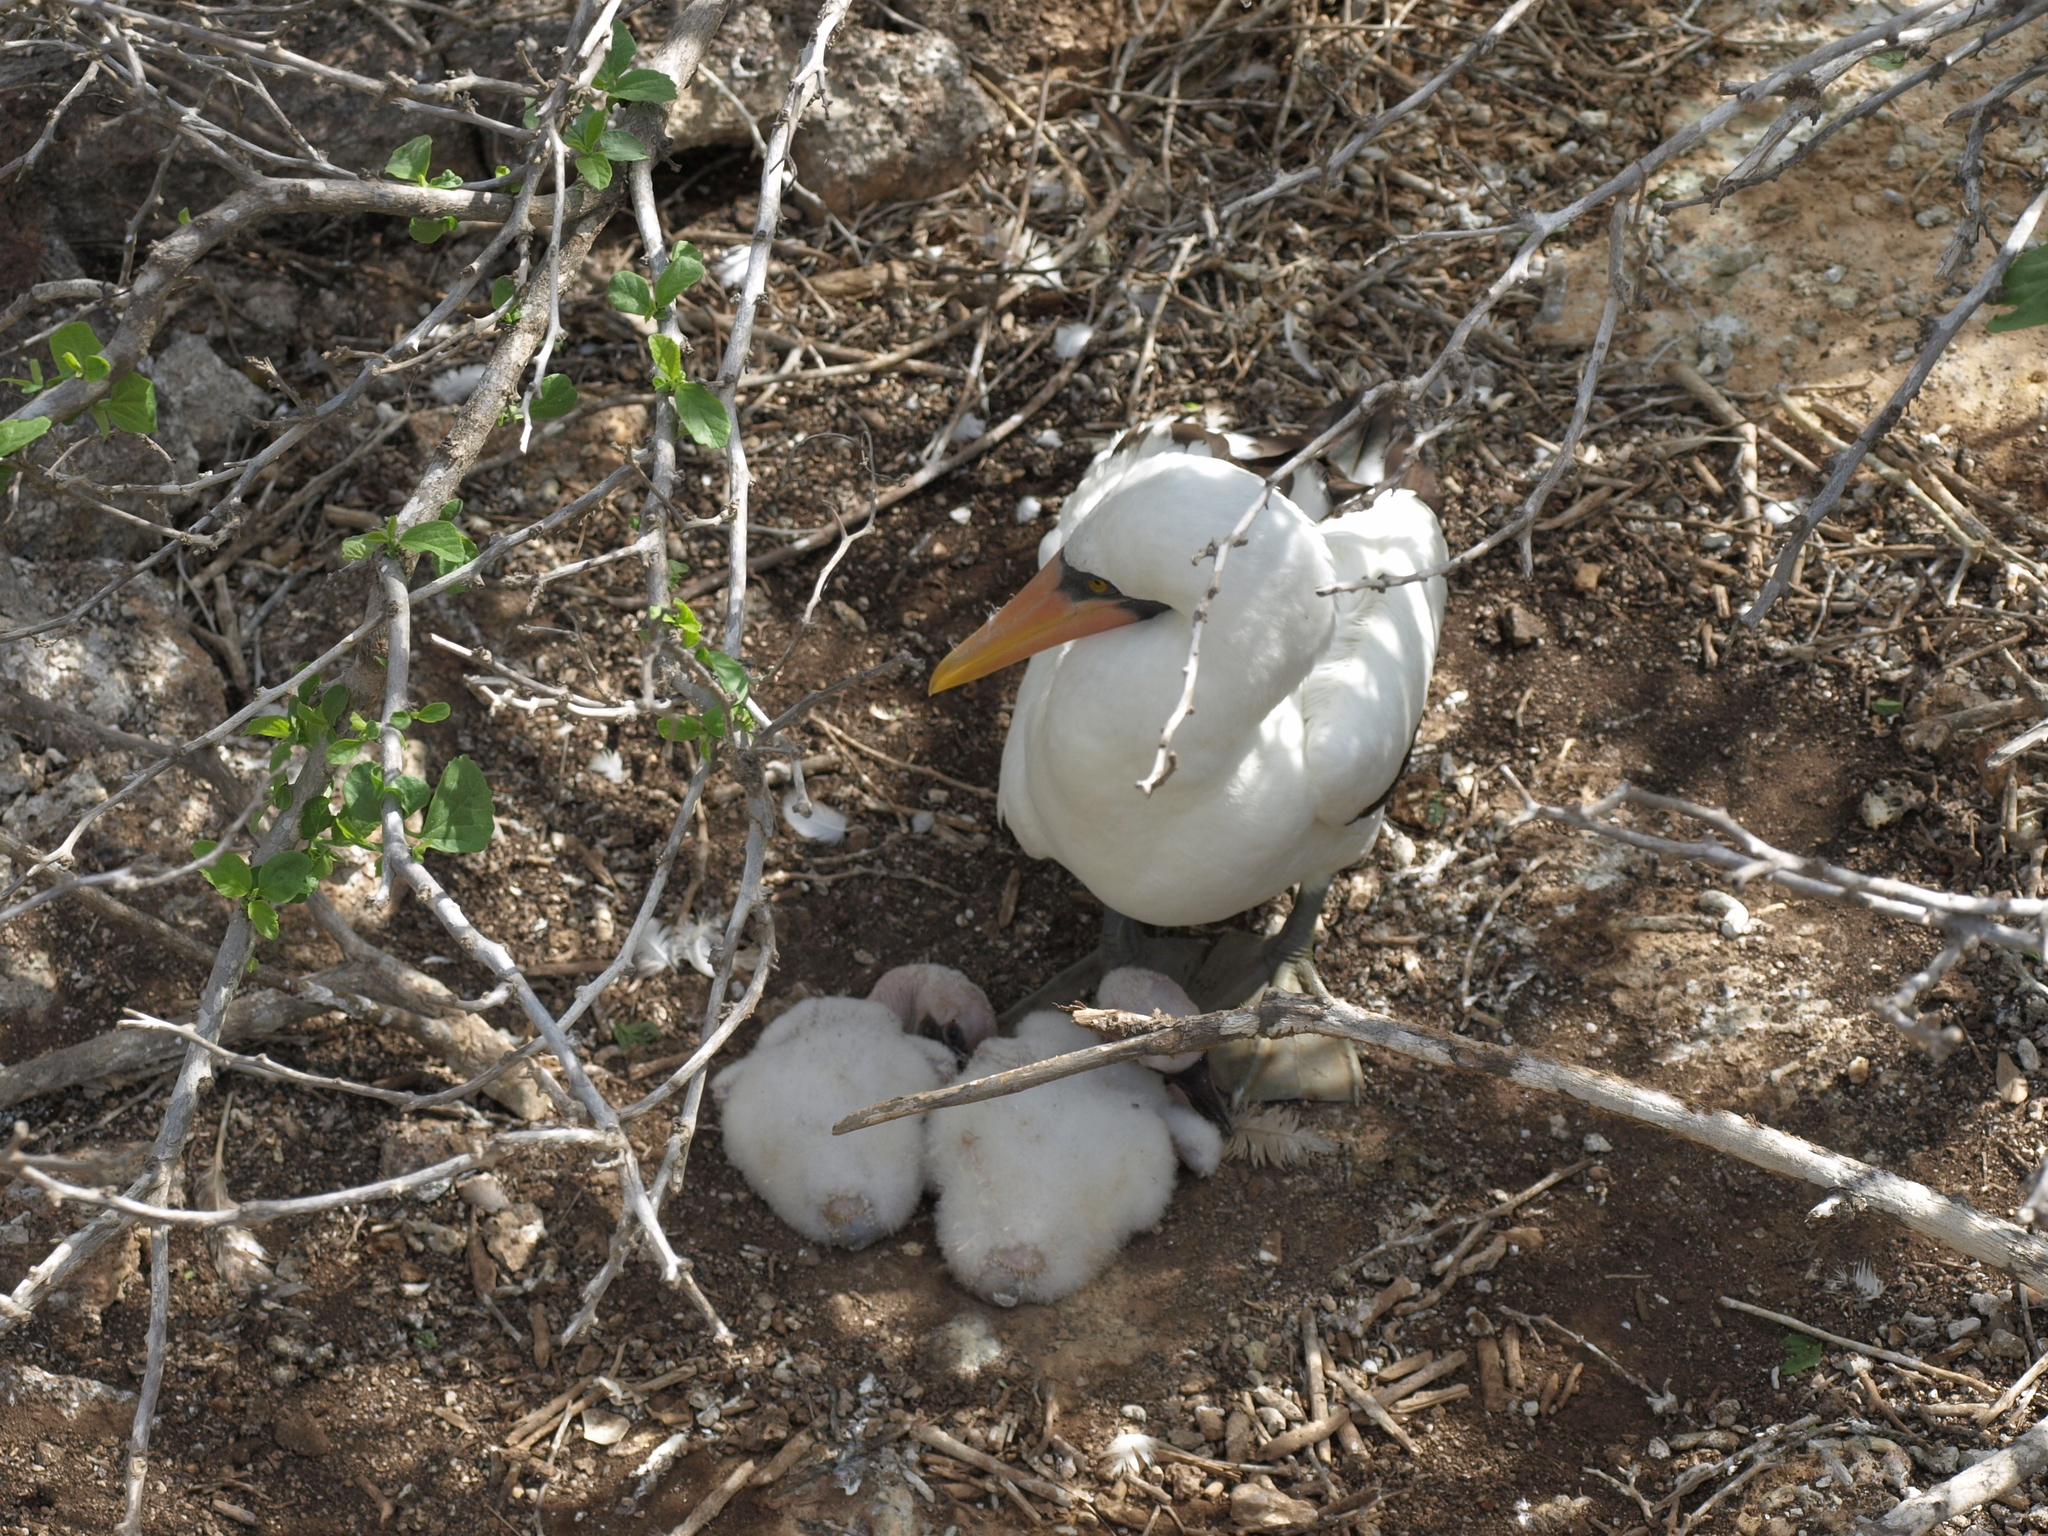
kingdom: Animalia
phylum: Chordata
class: Aves
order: Suliformes
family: Sulidae
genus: Sula
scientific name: Sula granti
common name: Nazca booby
